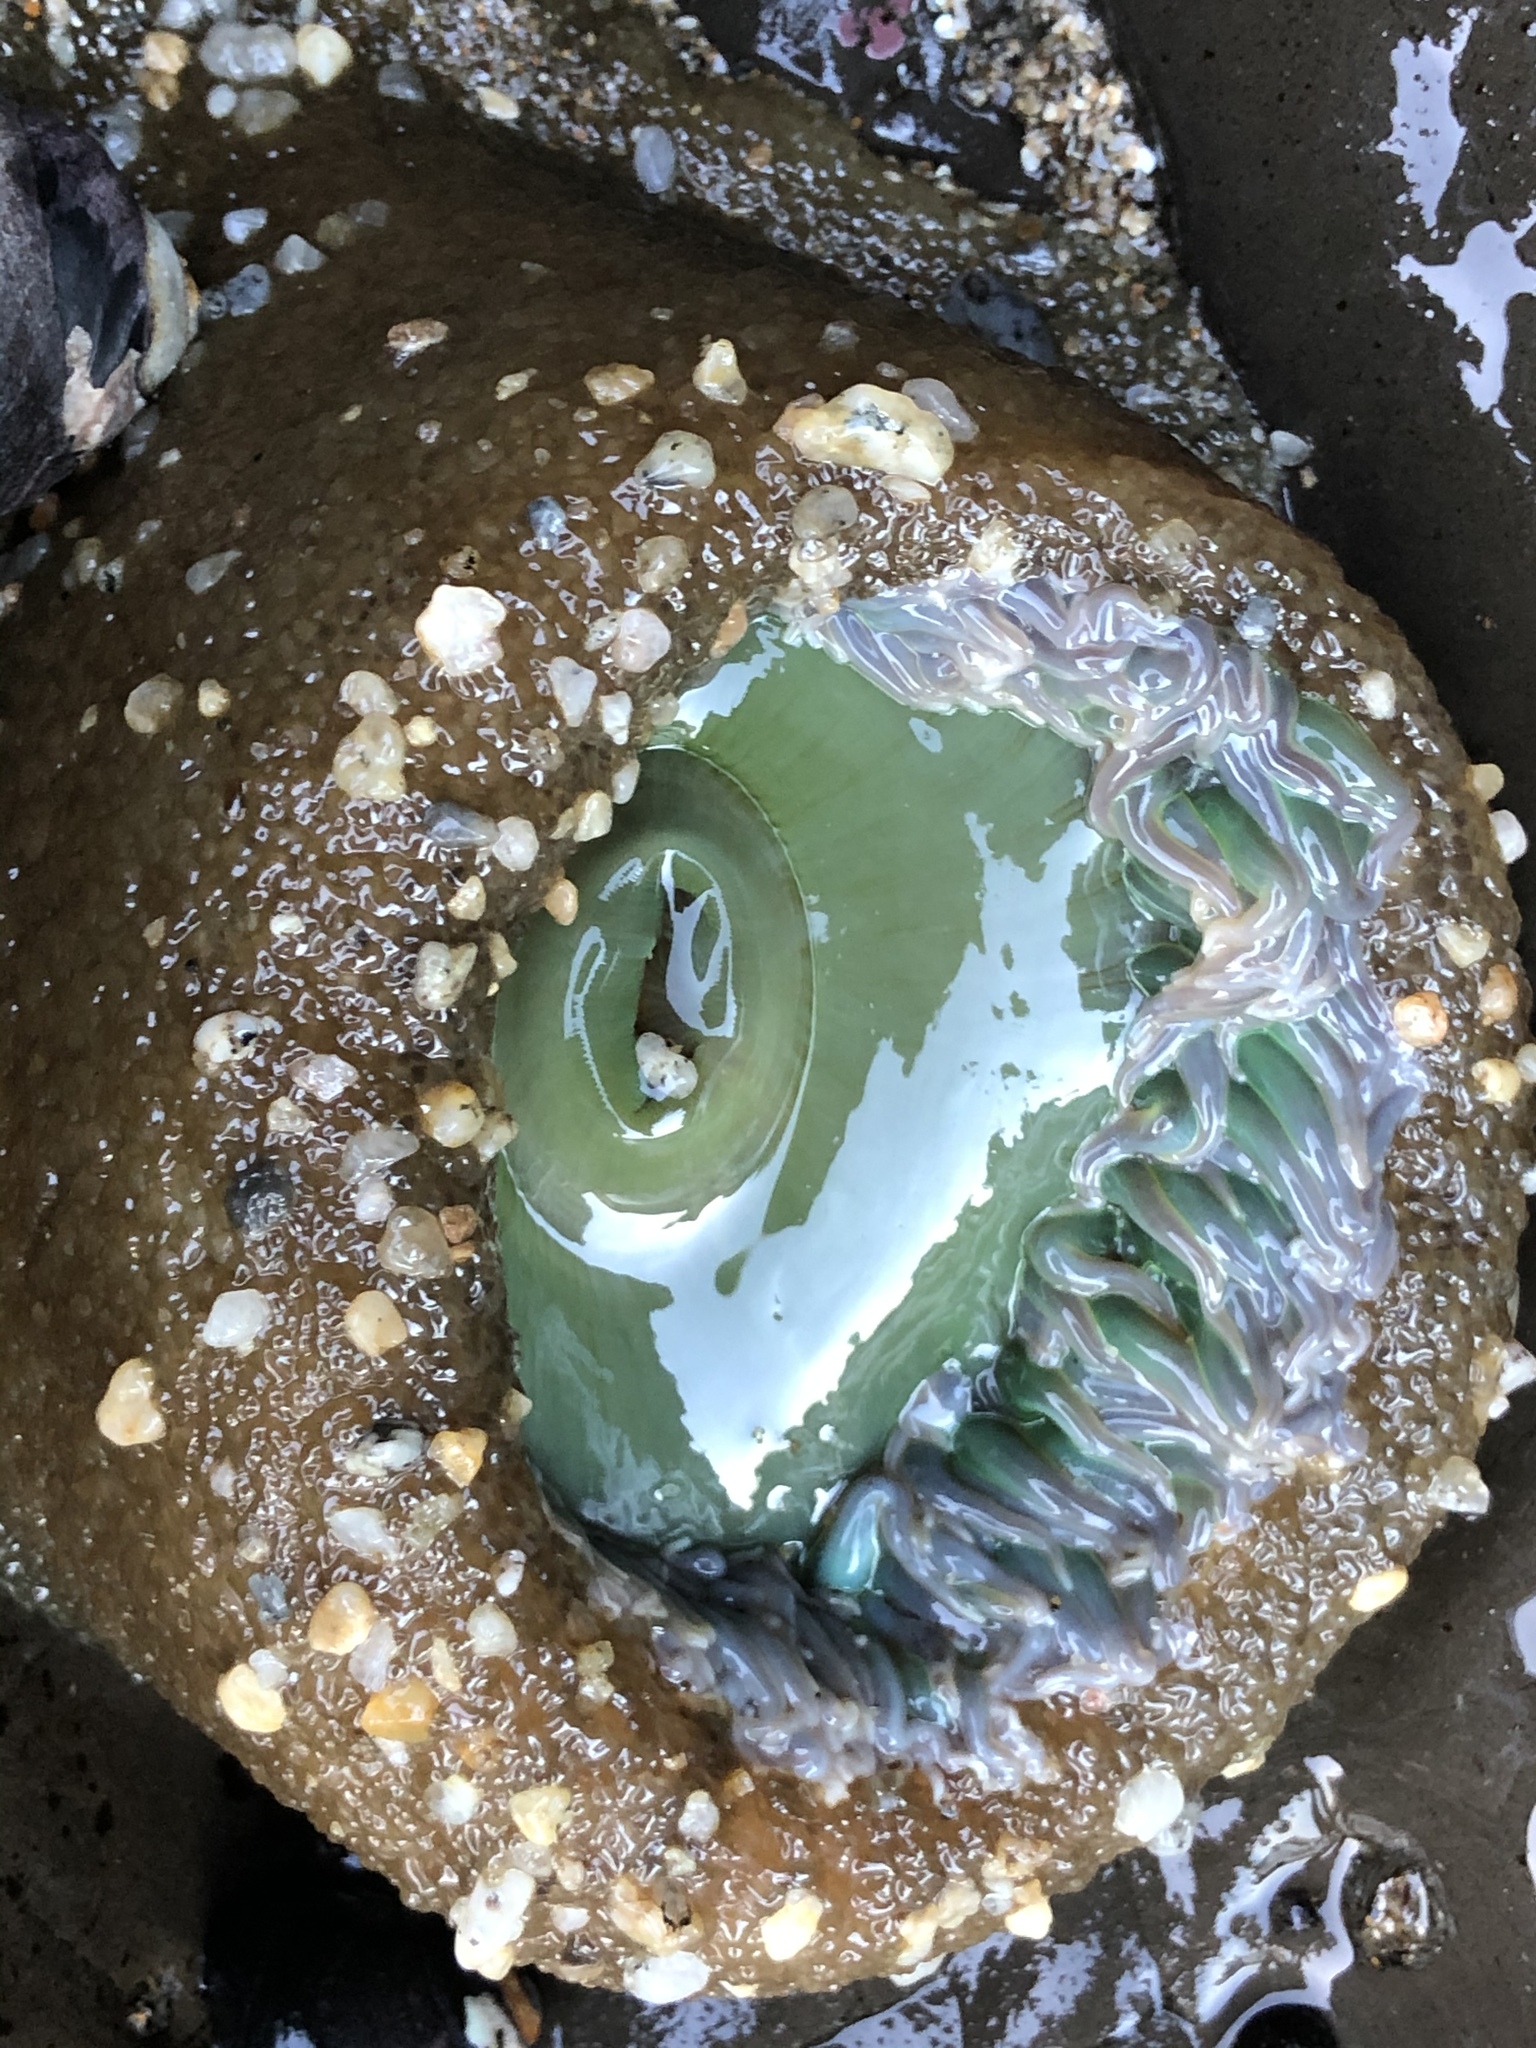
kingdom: Animalia
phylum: Cnidaria
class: Anthozoa
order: Actiniaria
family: Actiniidae
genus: Anthopleura
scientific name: Anthopleura xanthogrammica
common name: Giant green anemone
